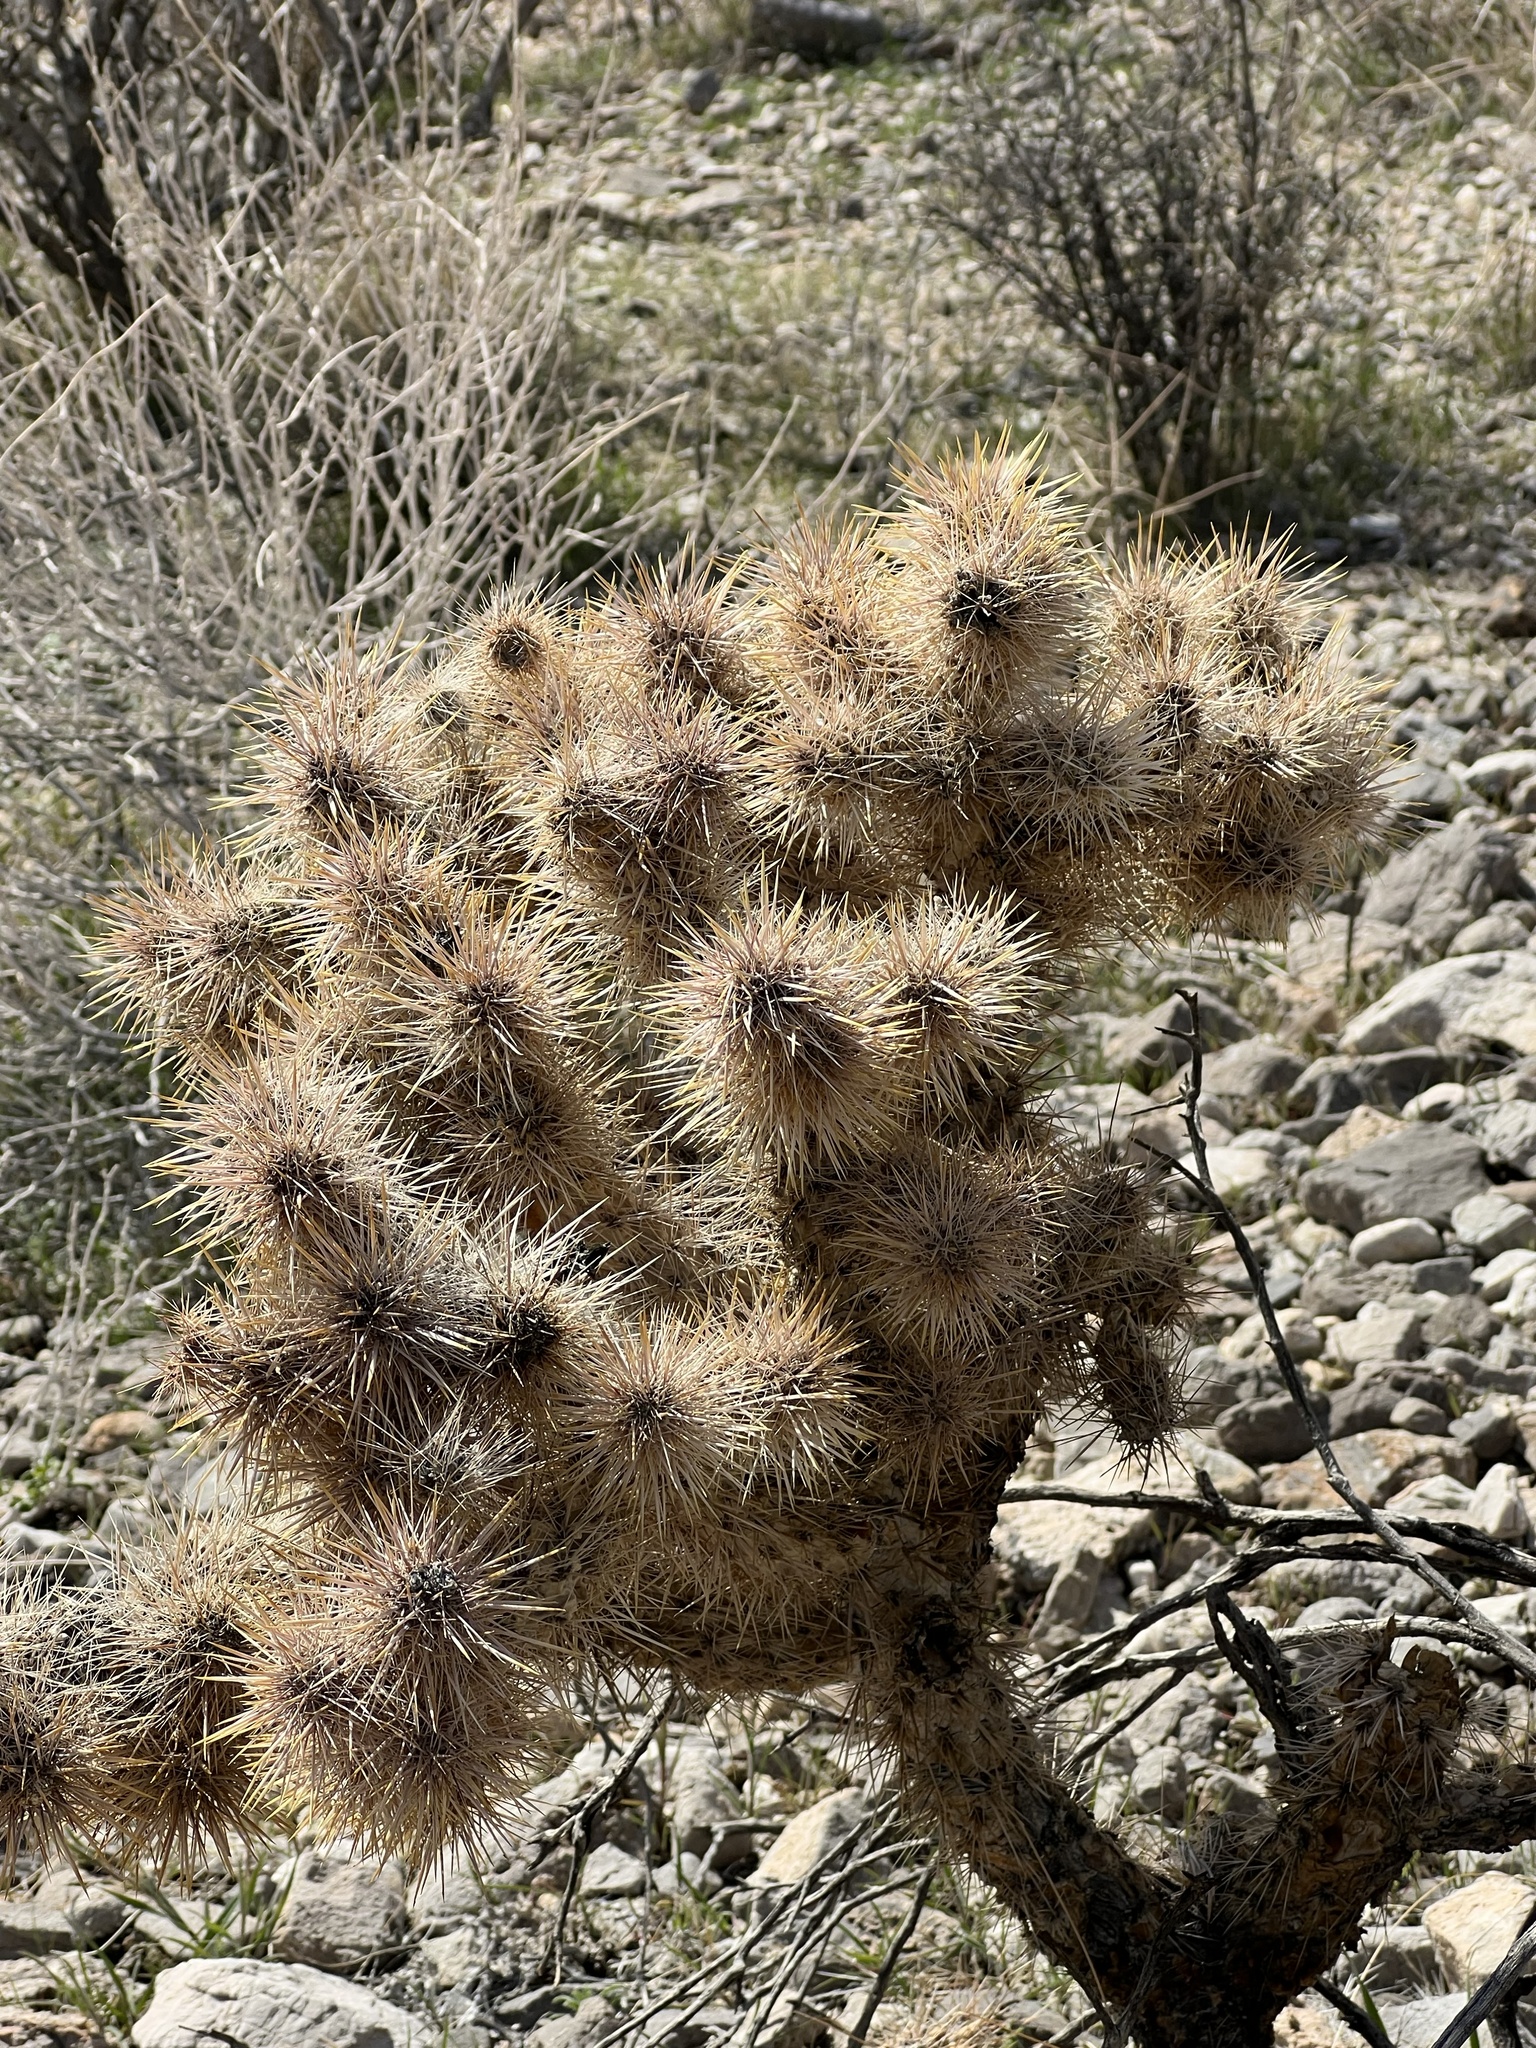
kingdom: Plantae
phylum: Tracheophyta
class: Magnoliopsida
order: Caryophyllales
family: Cactaceae
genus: Cylindropuntia
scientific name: Cylindropuntia echinocarpa
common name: Ground cholla
